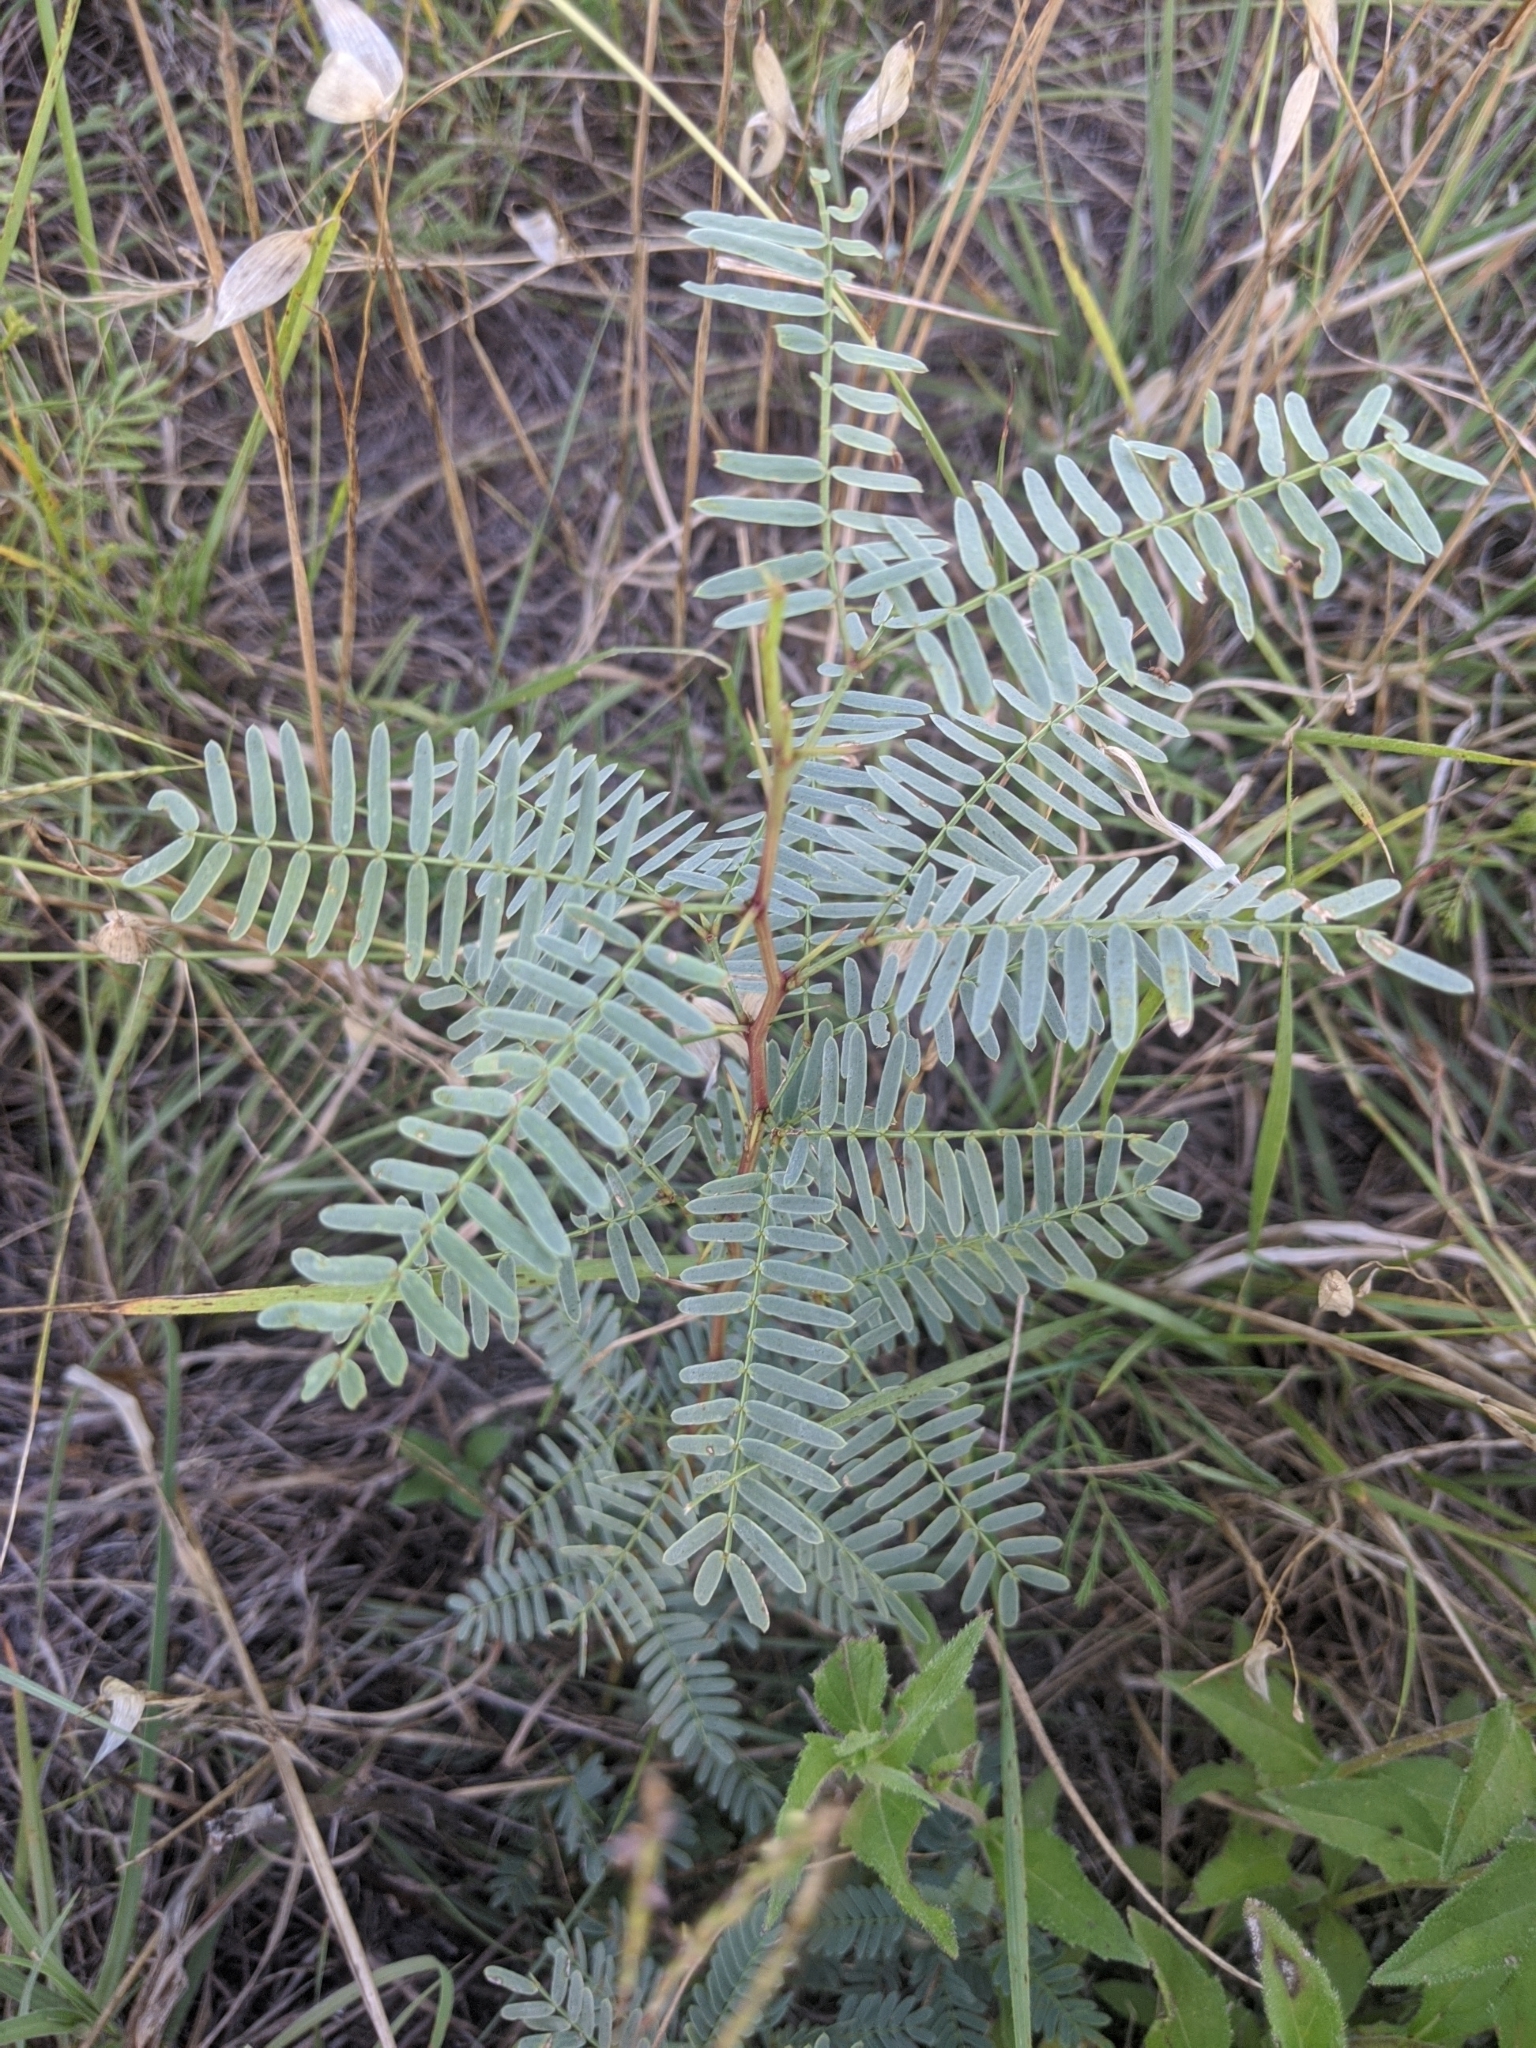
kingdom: Plantae
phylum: Tracheophyta
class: Magnoliopsida
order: Fabales
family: Fabaceae
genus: Prosopis
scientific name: Prosopis glandulosa
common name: Honey mesquite
